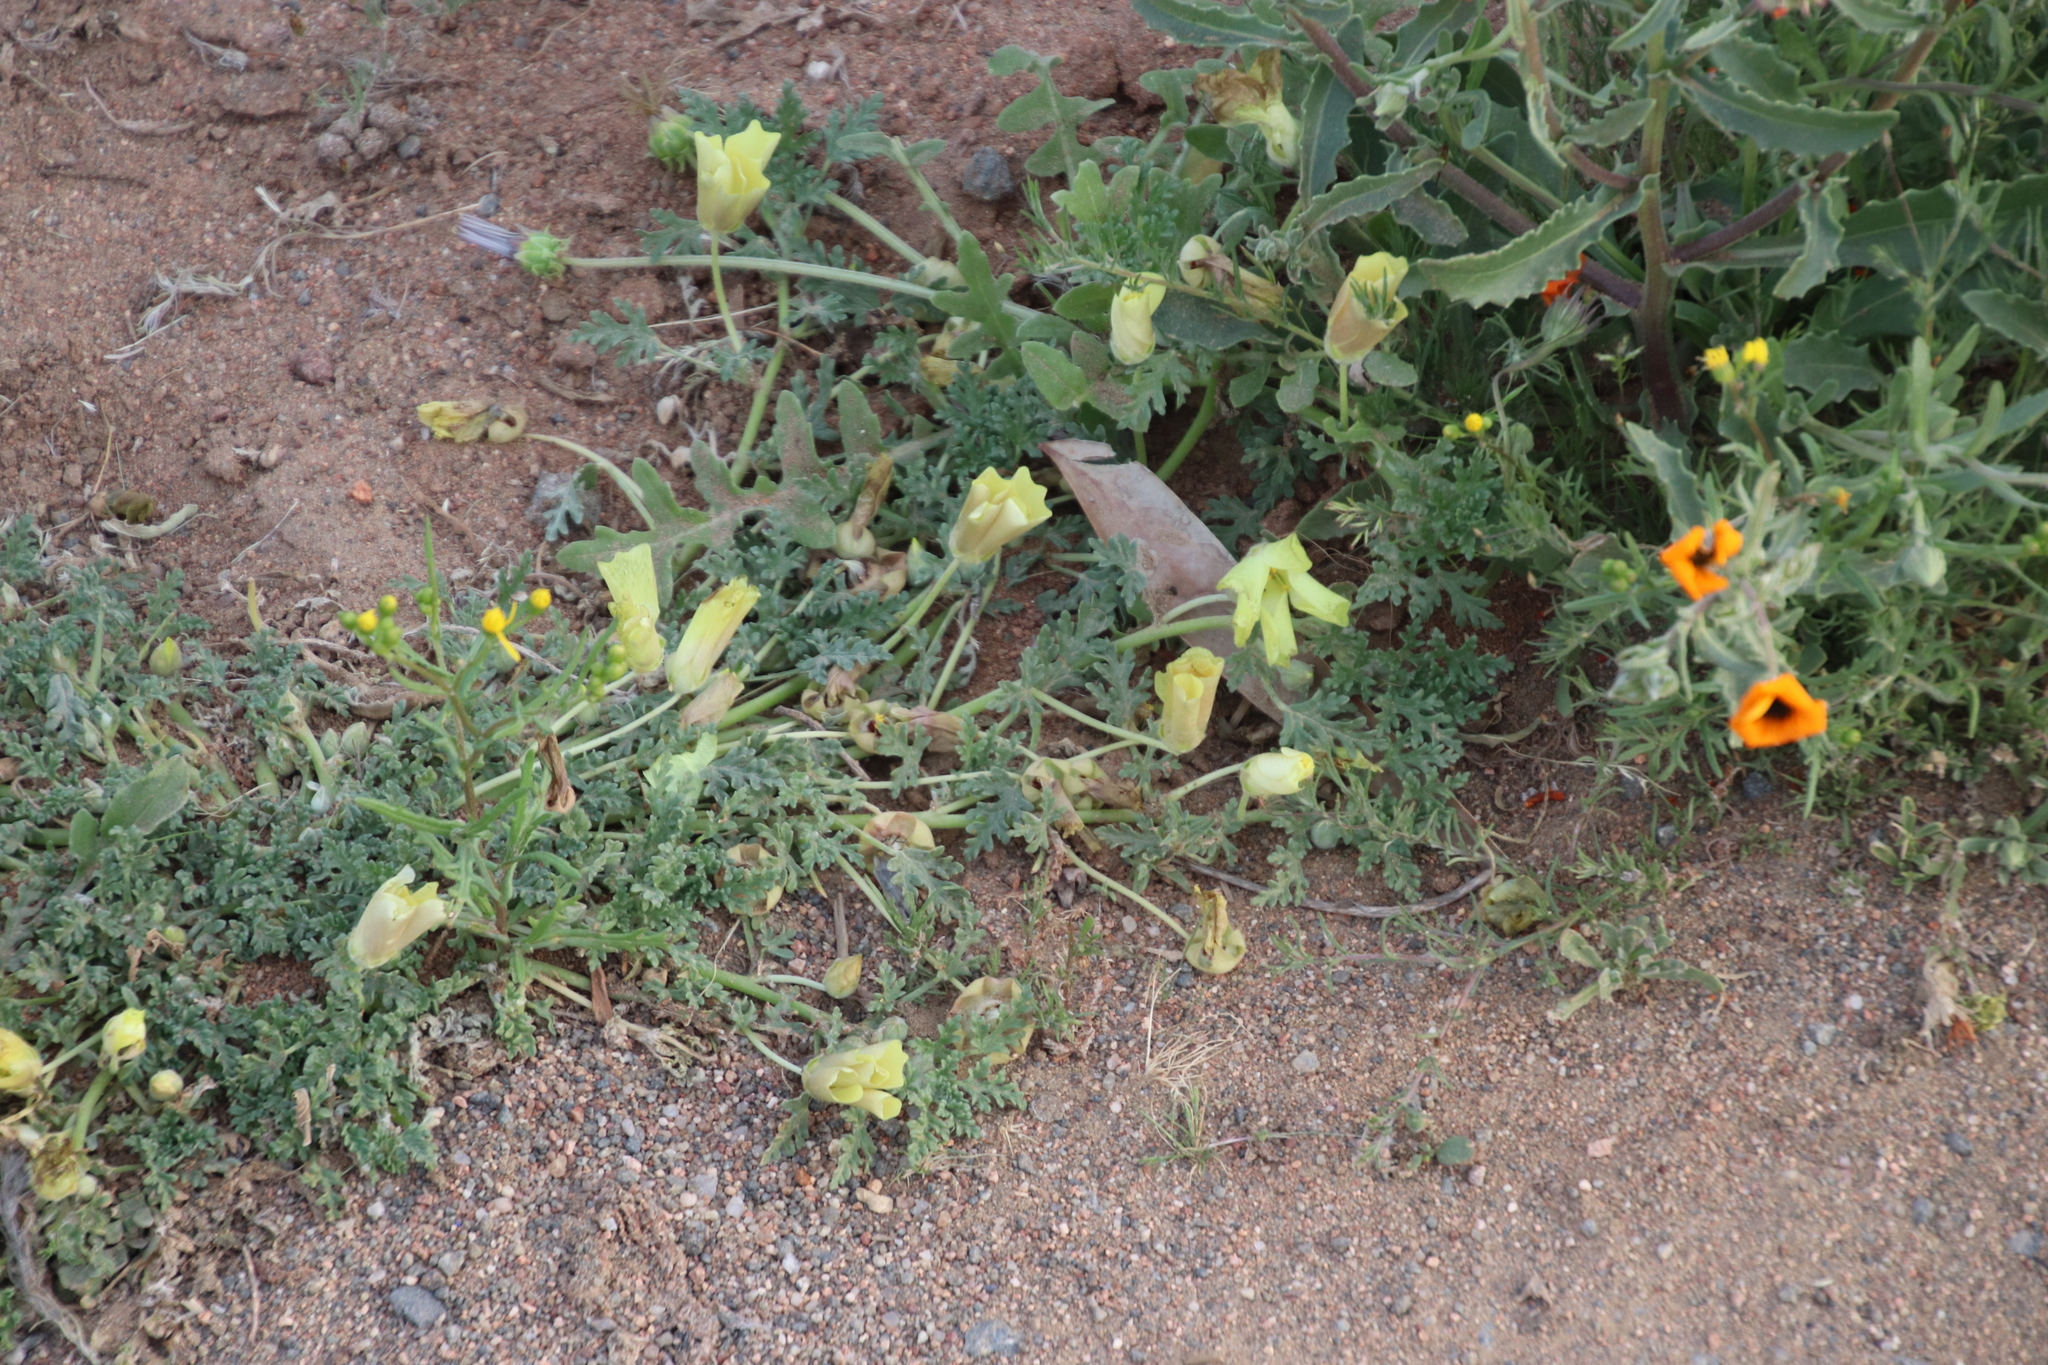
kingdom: Plantae
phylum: Tracheophyta
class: Magnoliopsida
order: Malvales
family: Neuradaceae
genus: Grielum
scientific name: Grielum humifusum
